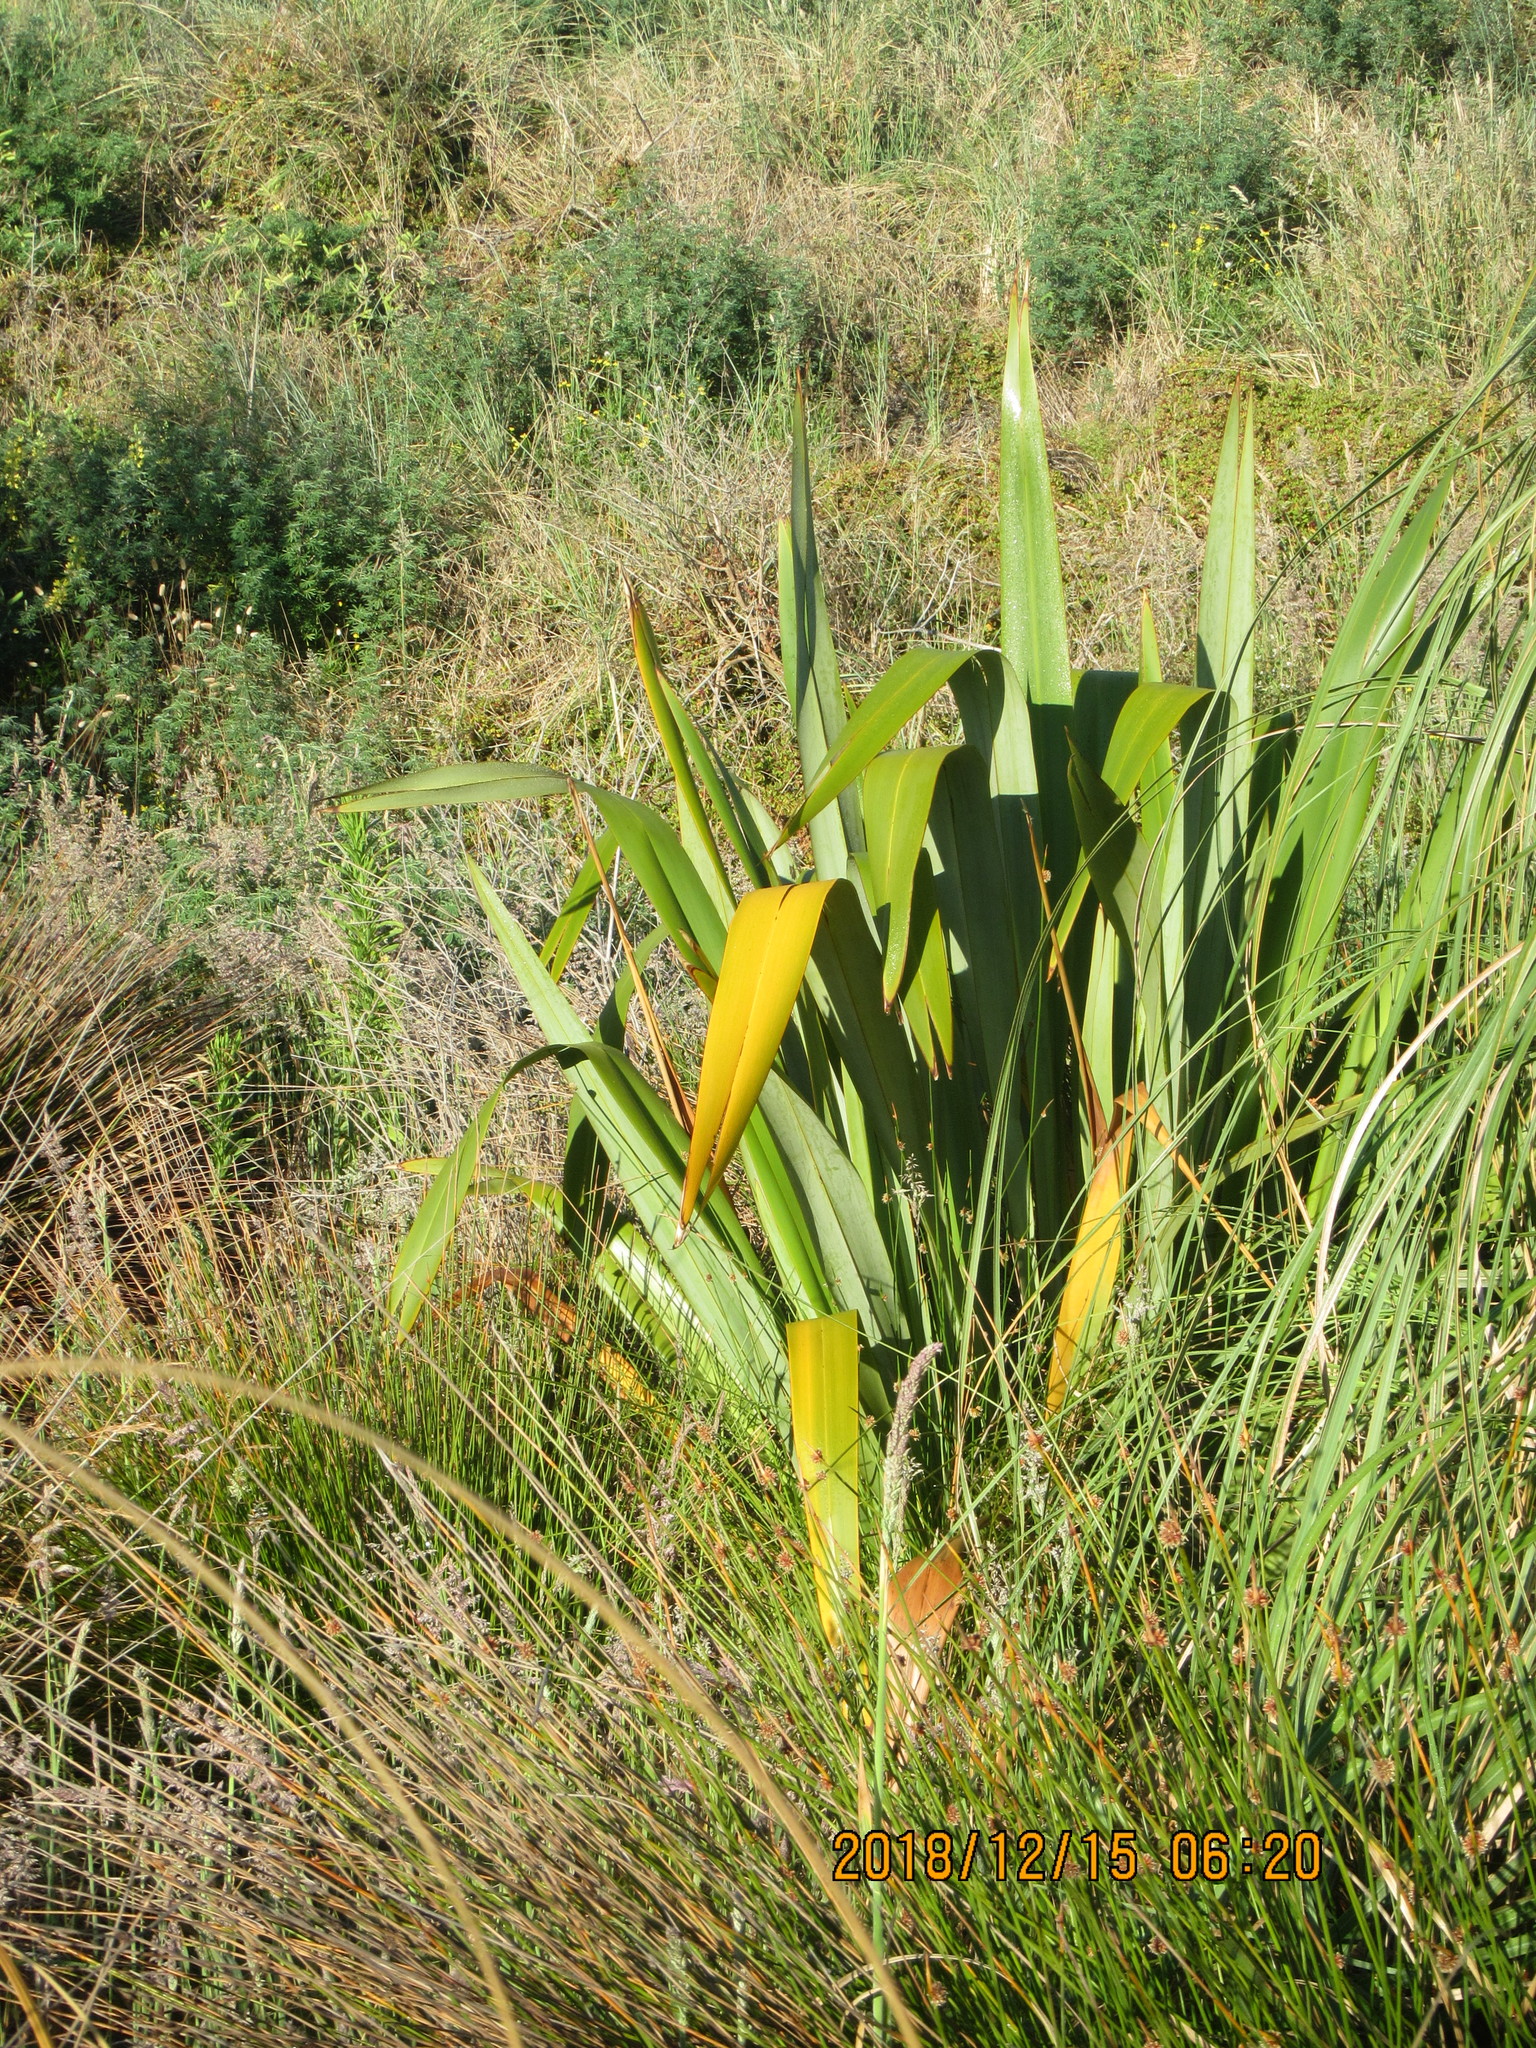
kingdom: Plantae
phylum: Tracheophyta
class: Liliopsida
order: Asparagales
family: Asphodelaceae
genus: Phormium
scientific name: Phormium tenax
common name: New zealand flax
